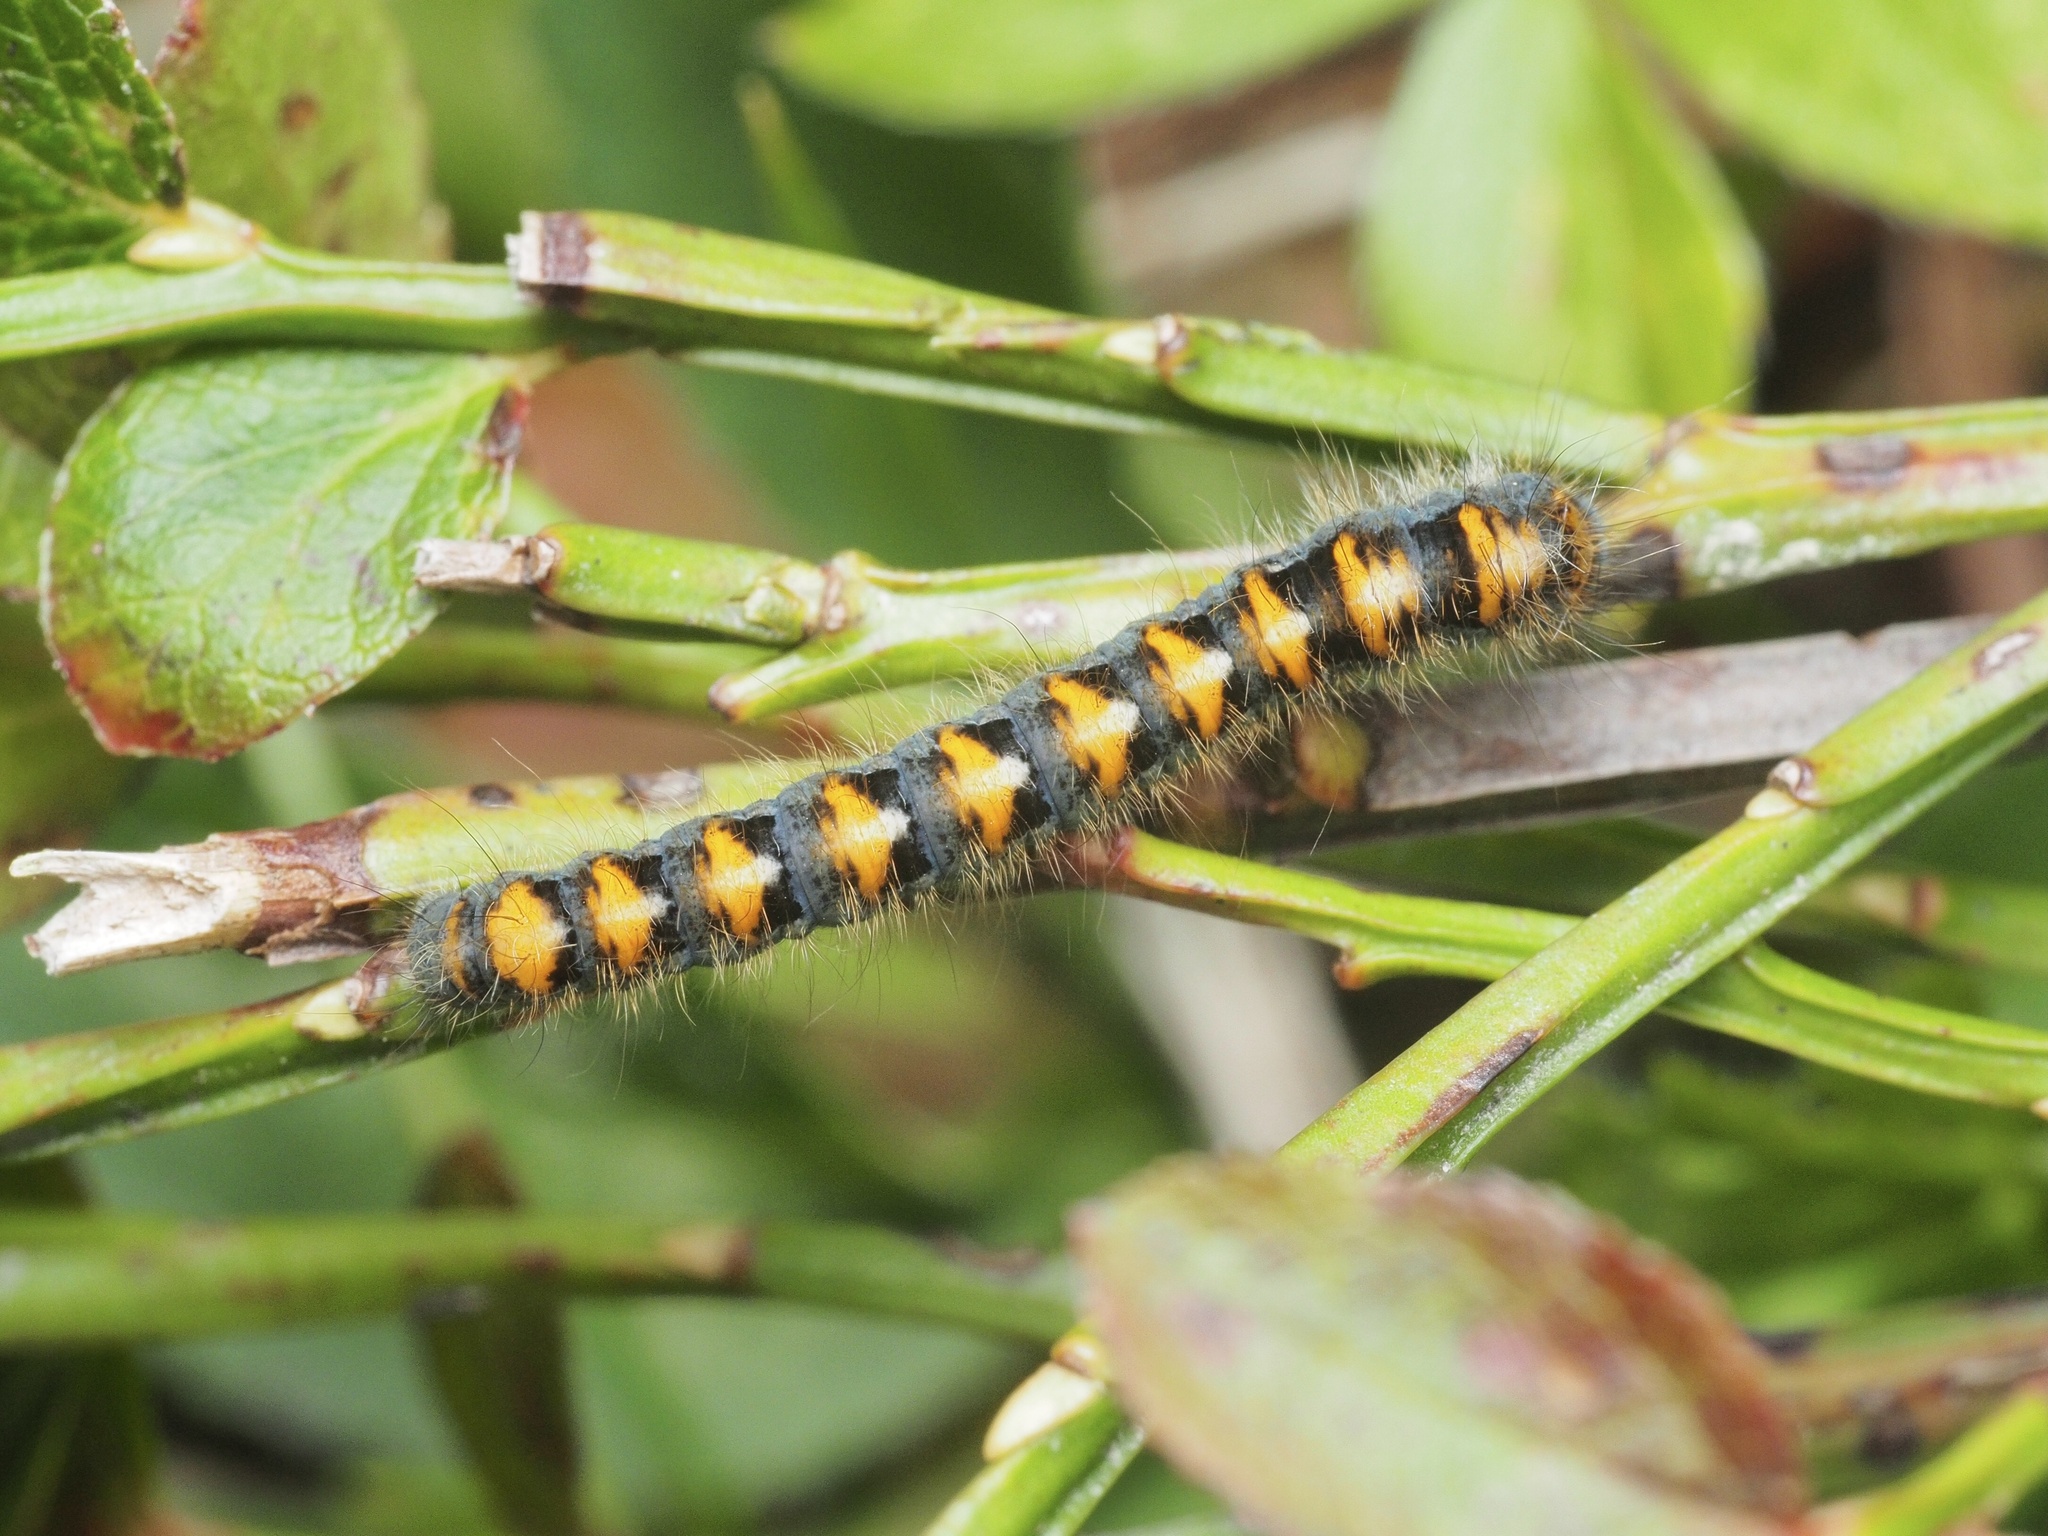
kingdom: Animalia
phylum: Arthropoda
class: Insecta
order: Lepidoptera
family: Lasiocampidae
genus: Lasiocampa
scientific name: Lasiocampa quercus
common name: Oak eggar
